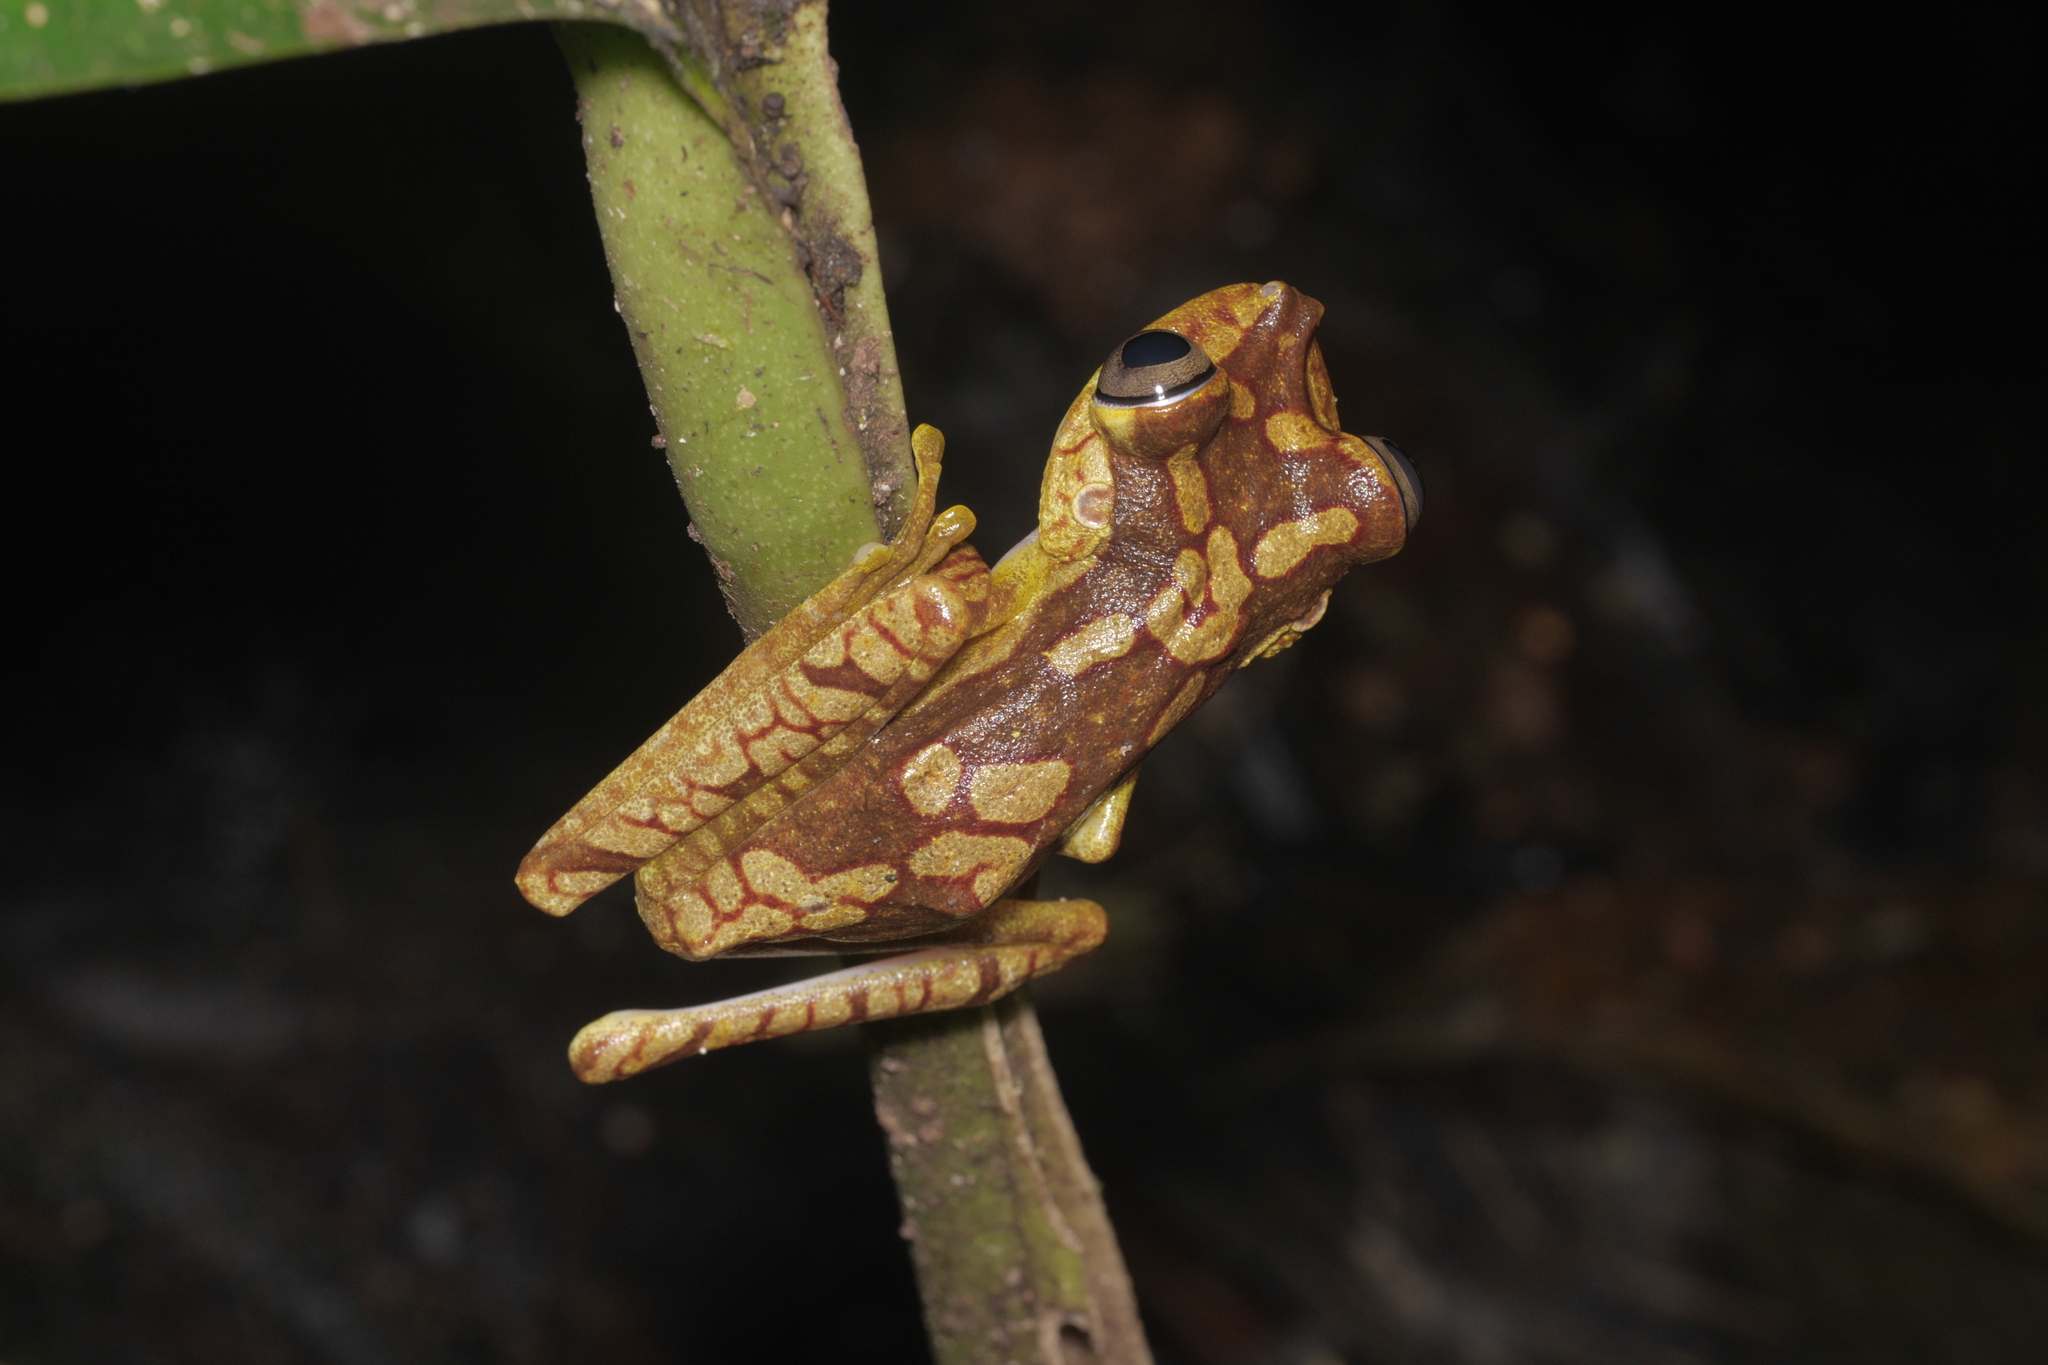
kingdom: Animalia
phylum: Chordata
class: Amphibia
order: Anura
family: Hylidae
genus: Boana
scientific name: Boana picturata
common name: Imbabura treefrog
